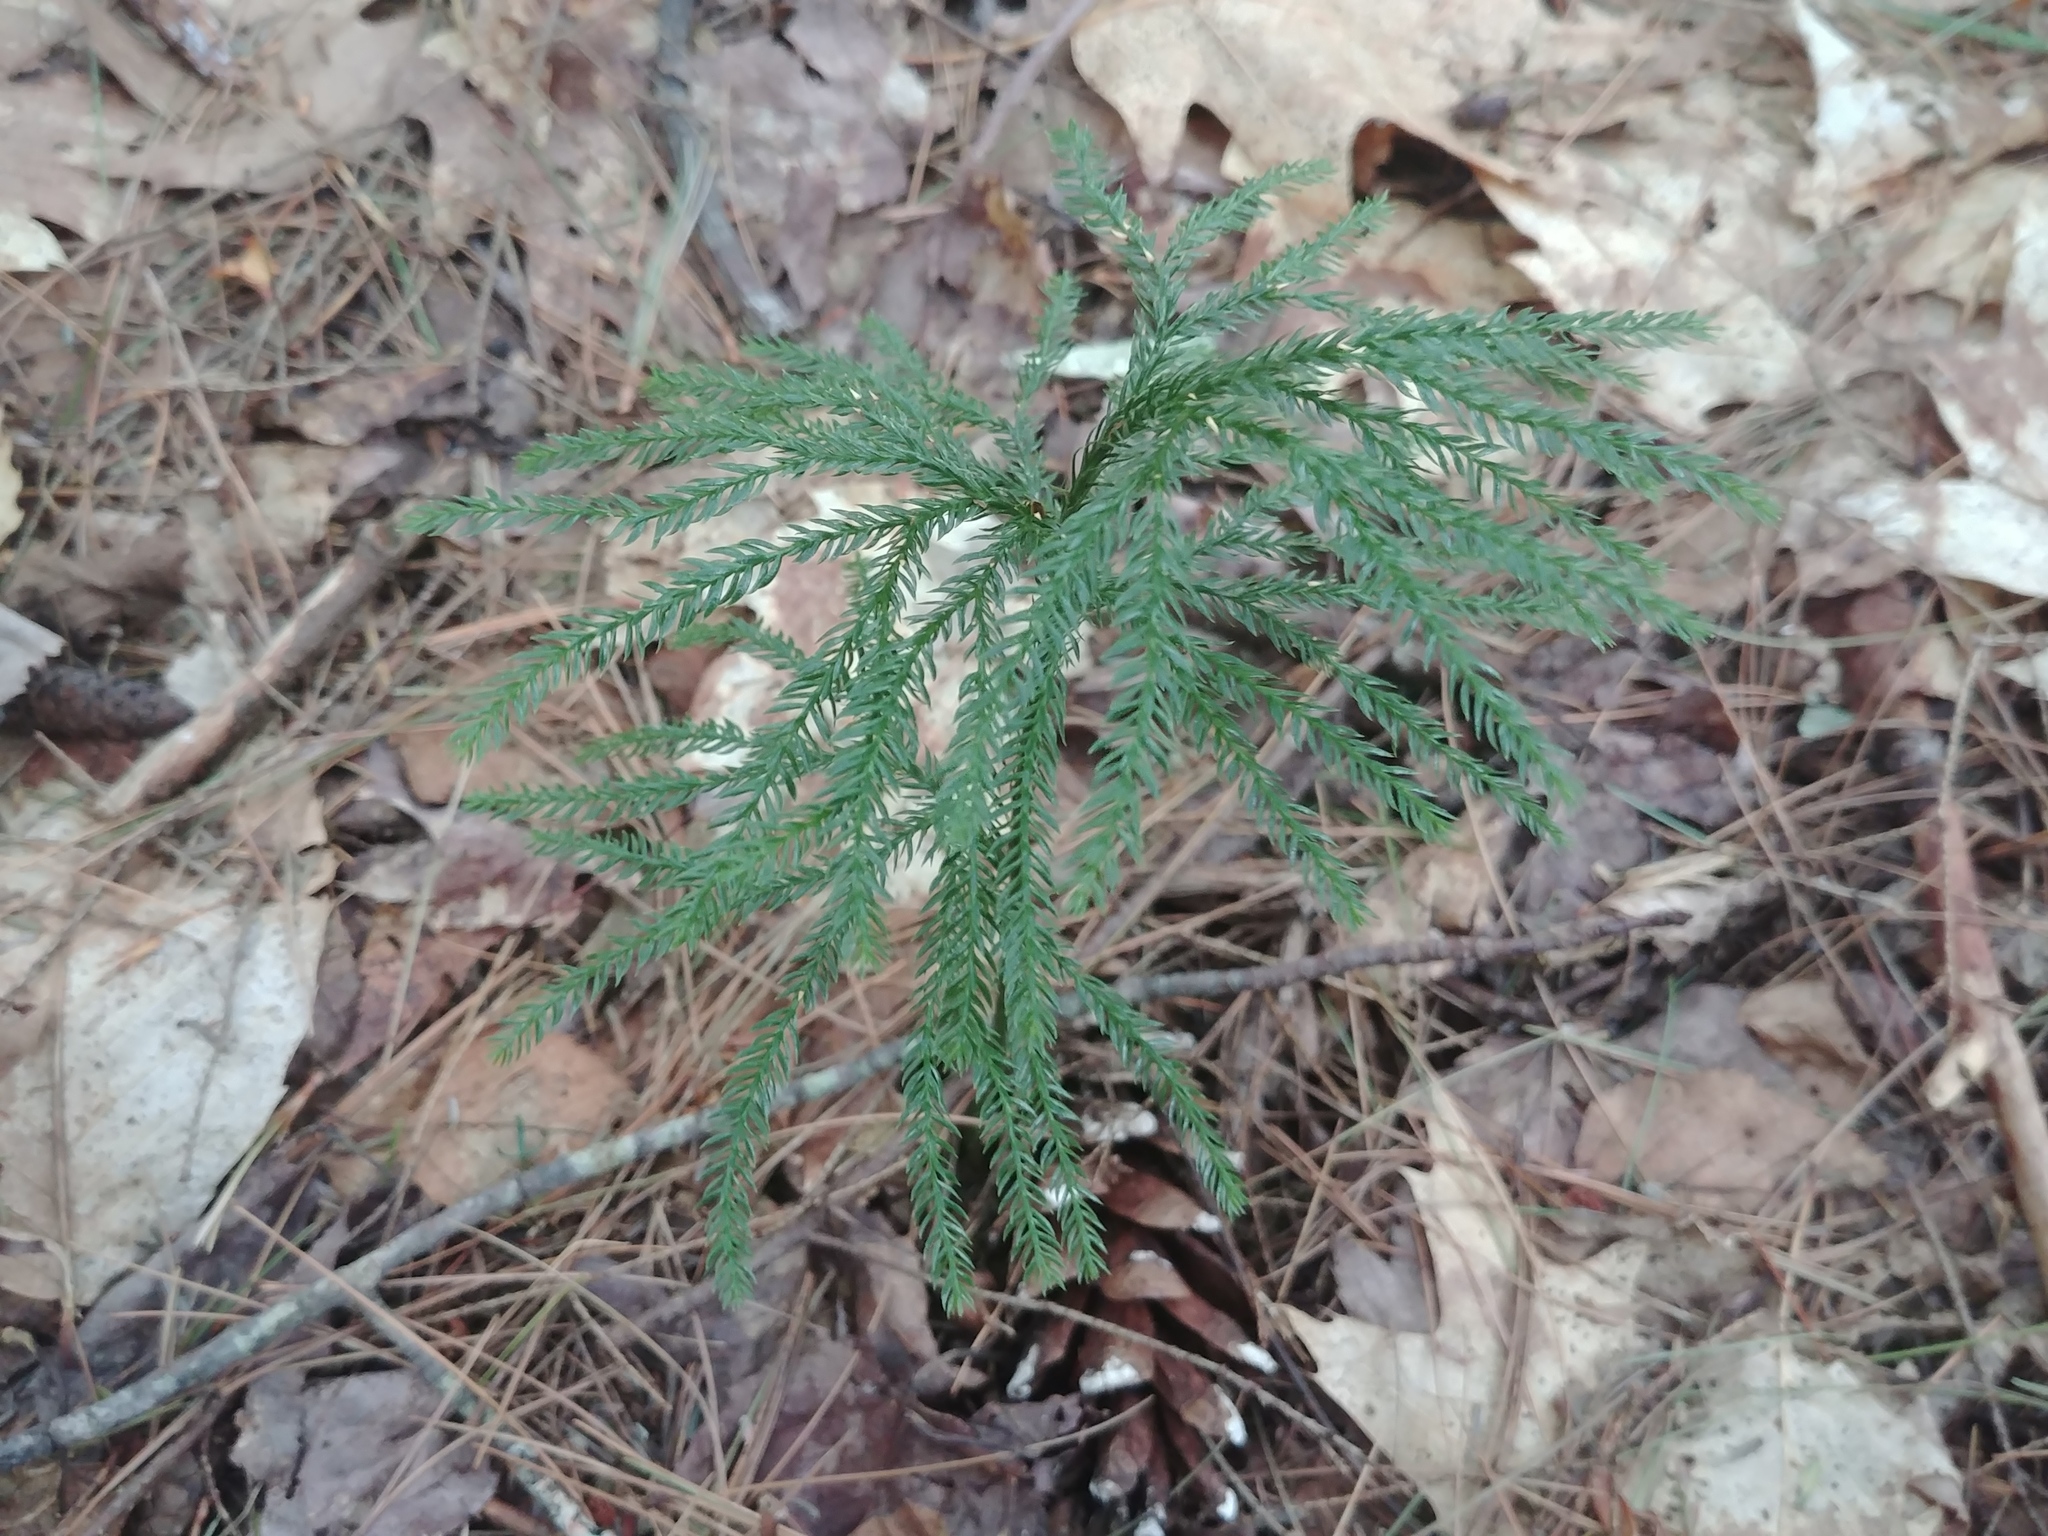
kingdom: Plantae
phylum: Tracheophyta
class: Lycopodiopsida
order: Lycopodiales
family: Lycopodiaceae
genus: Dendrolycopodium
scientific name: Dendrolycopodium obscurum
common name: Common ground-pine
